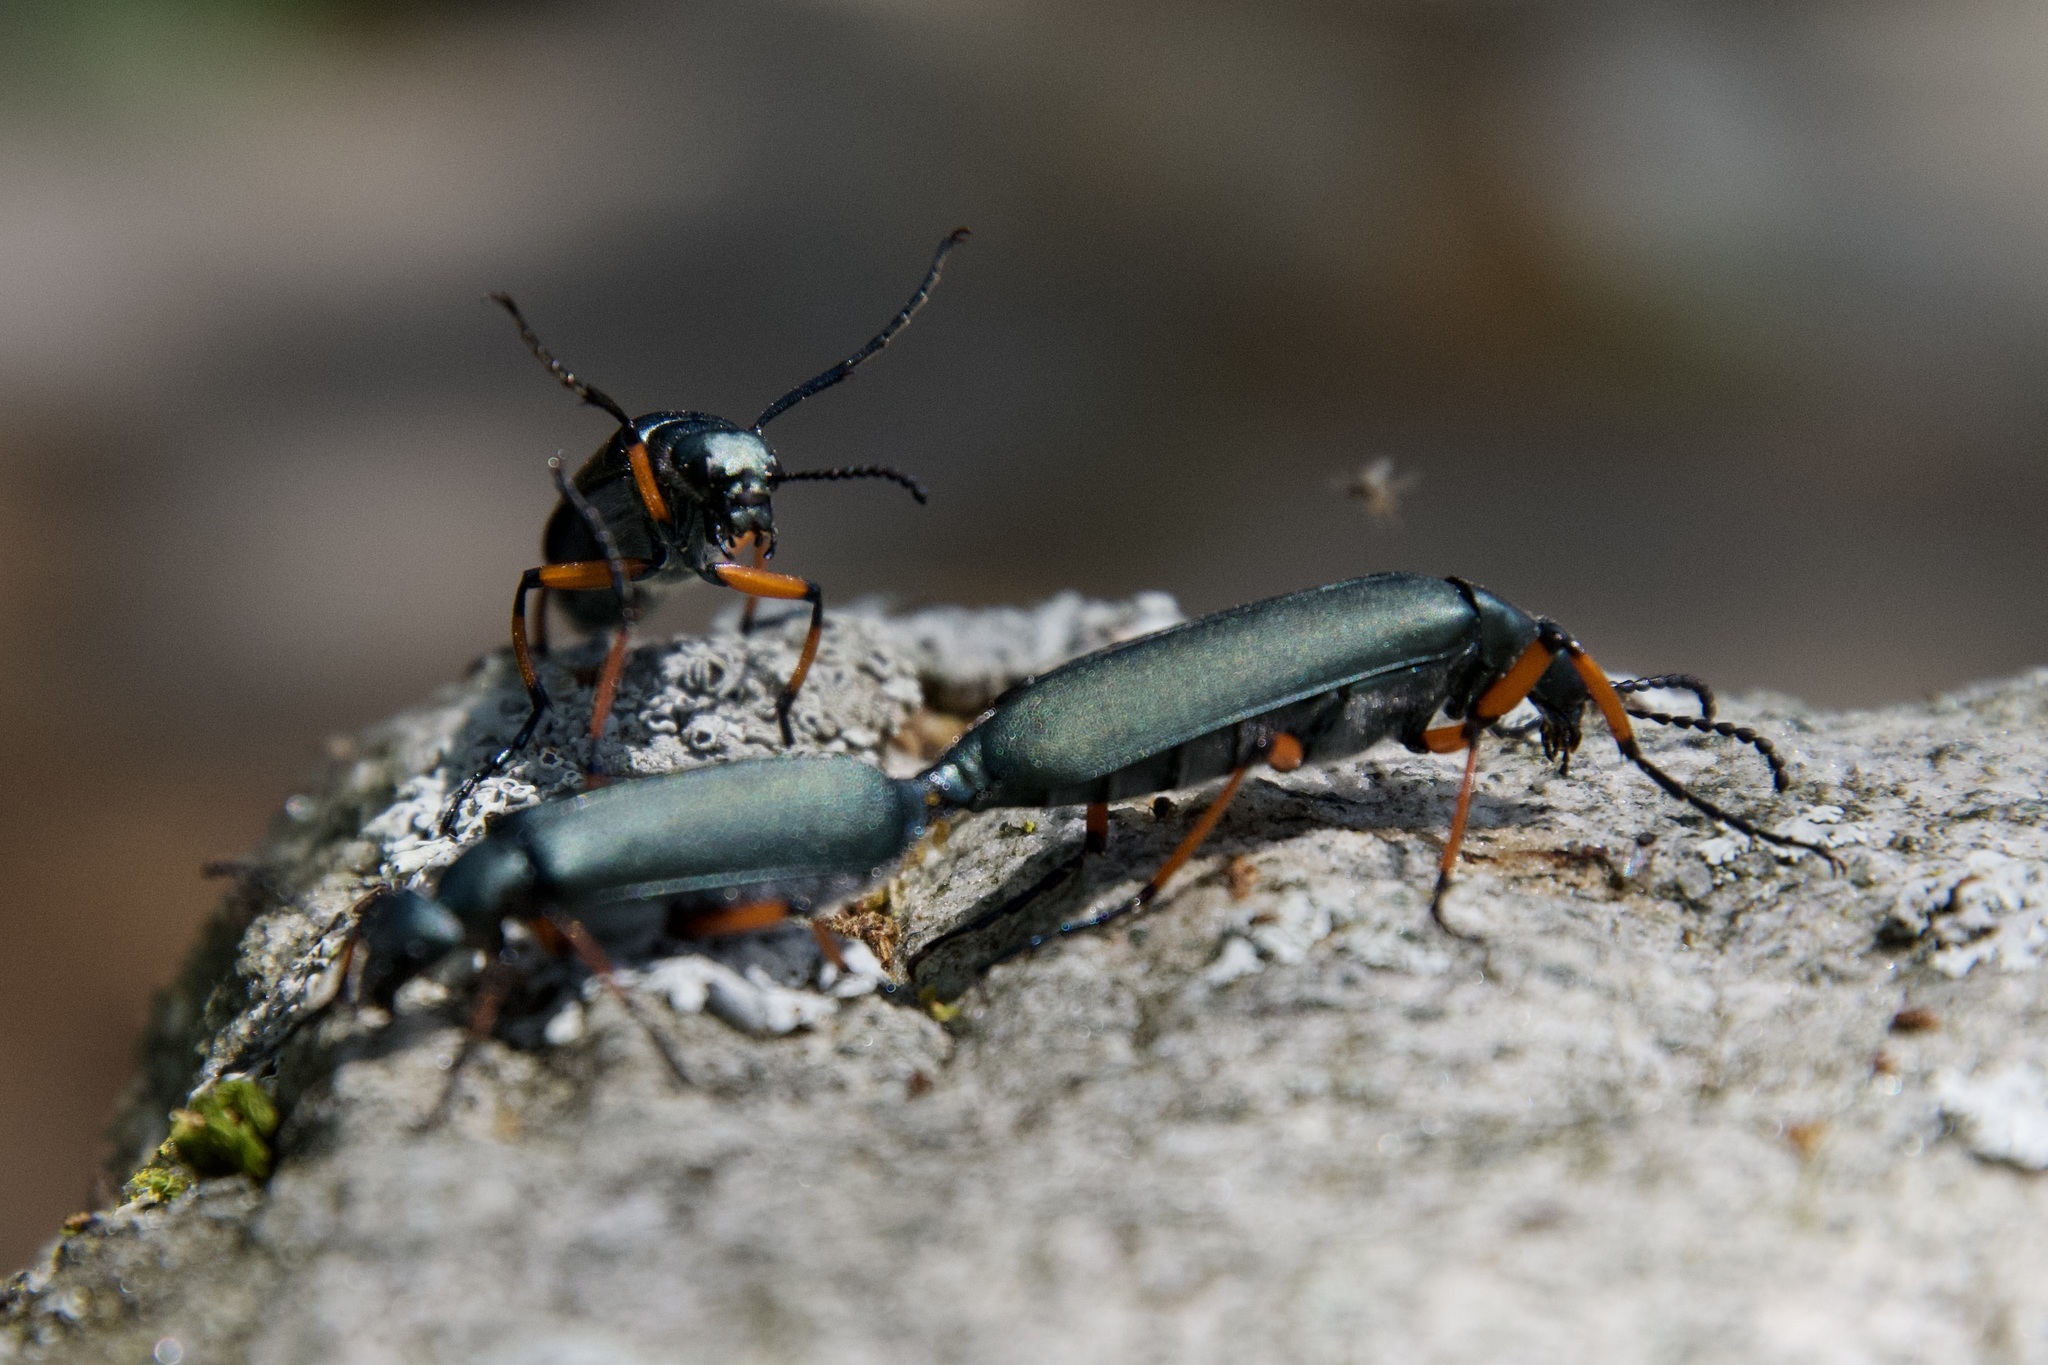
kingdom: Animalia
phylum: Arthropoda
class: Insecta
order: Coleoptera
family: Meloidae
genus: Lytta
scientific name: Lytta sayi
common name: Say's blister beetle
